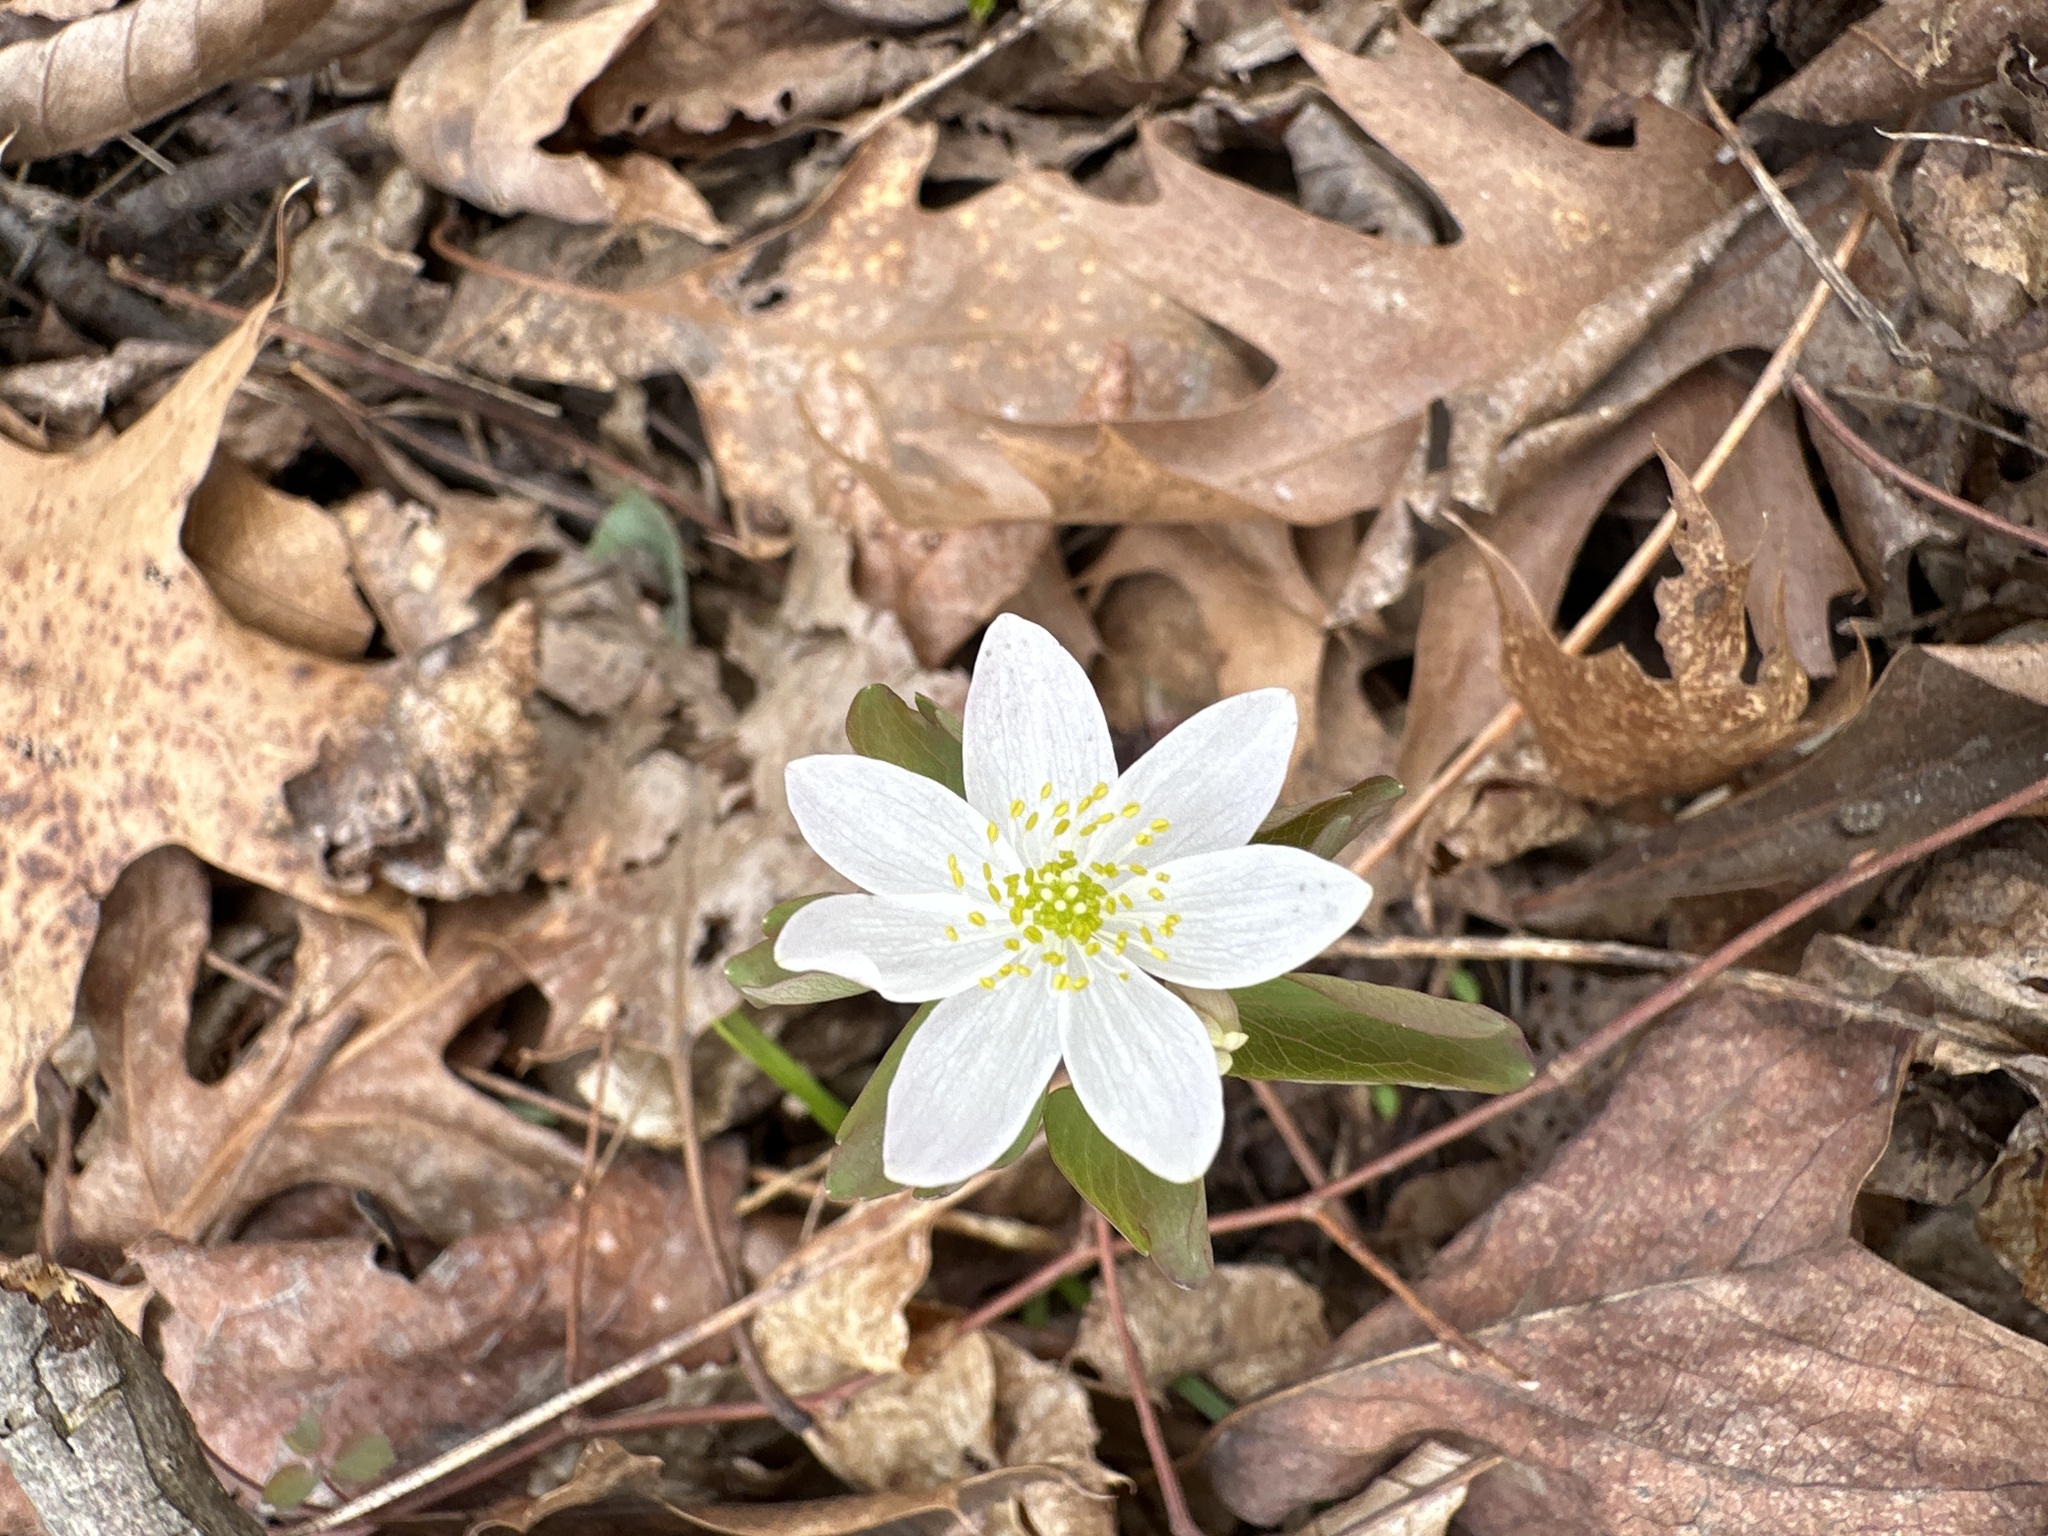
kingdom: Plantae
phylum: Tracheophyta
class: Magnoliopsida
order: Ranunculales
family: Ranunculaceae
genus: Thalictrum
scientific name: Thalictrum thalictroides
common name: Rue-anemone
